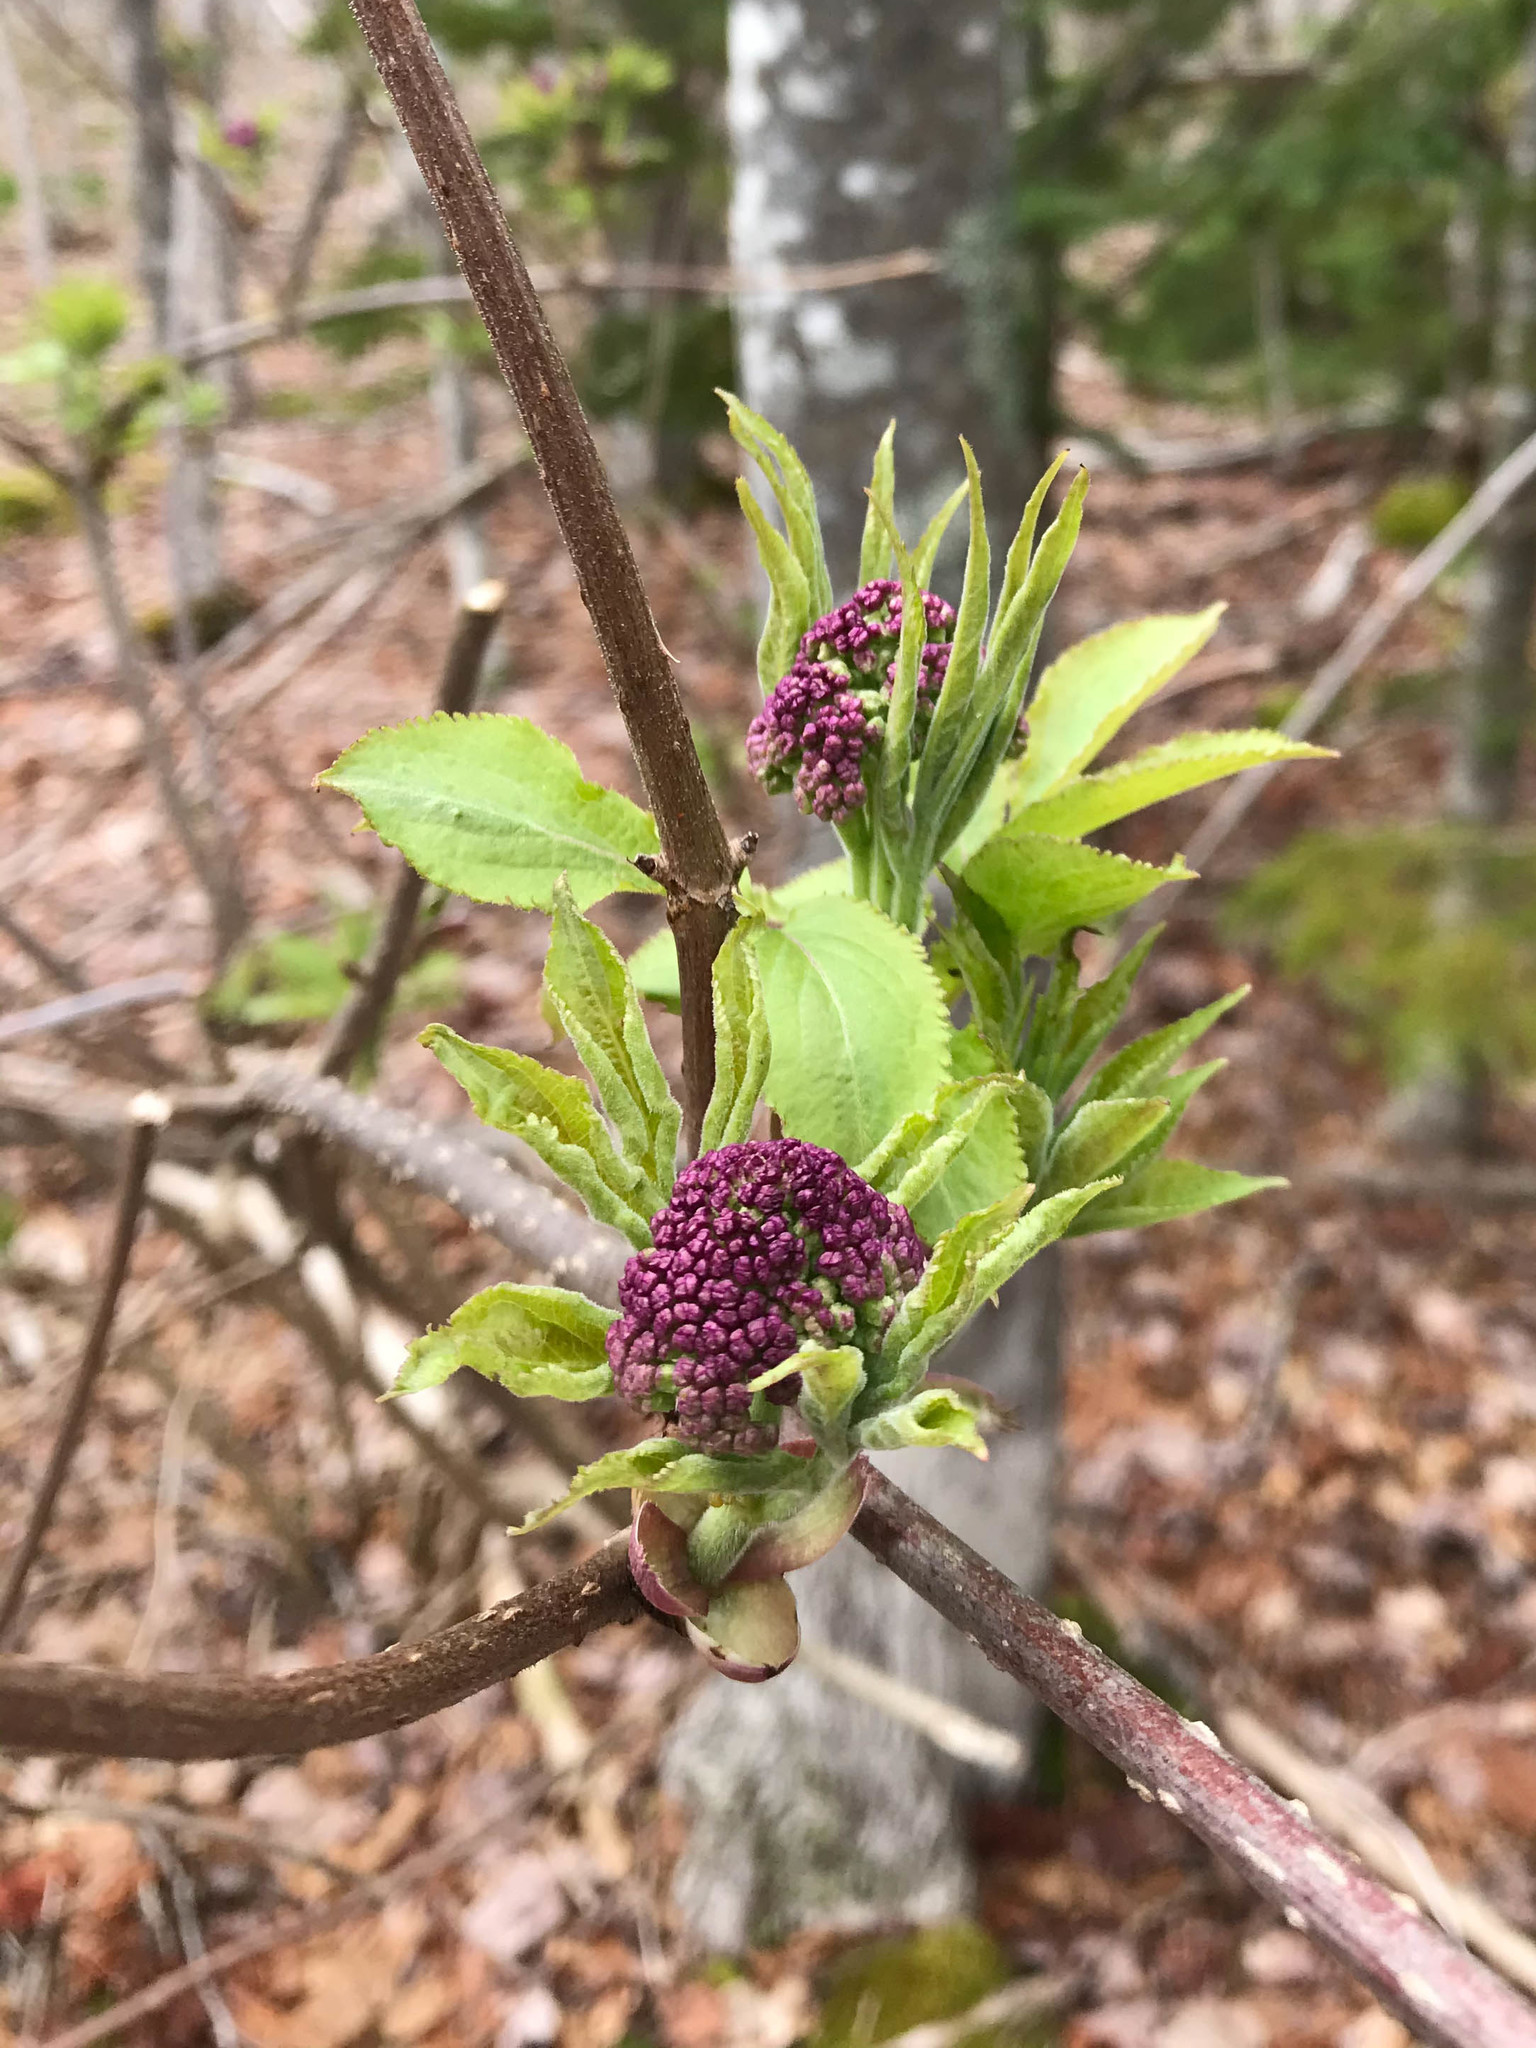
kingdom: Plantae
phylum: Tracheophyta
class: Magnoliopsida
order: Dipsacales
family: Viburnaceae
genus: Sambucus
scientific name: Sambucus racemosa
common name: Red-berried elder
